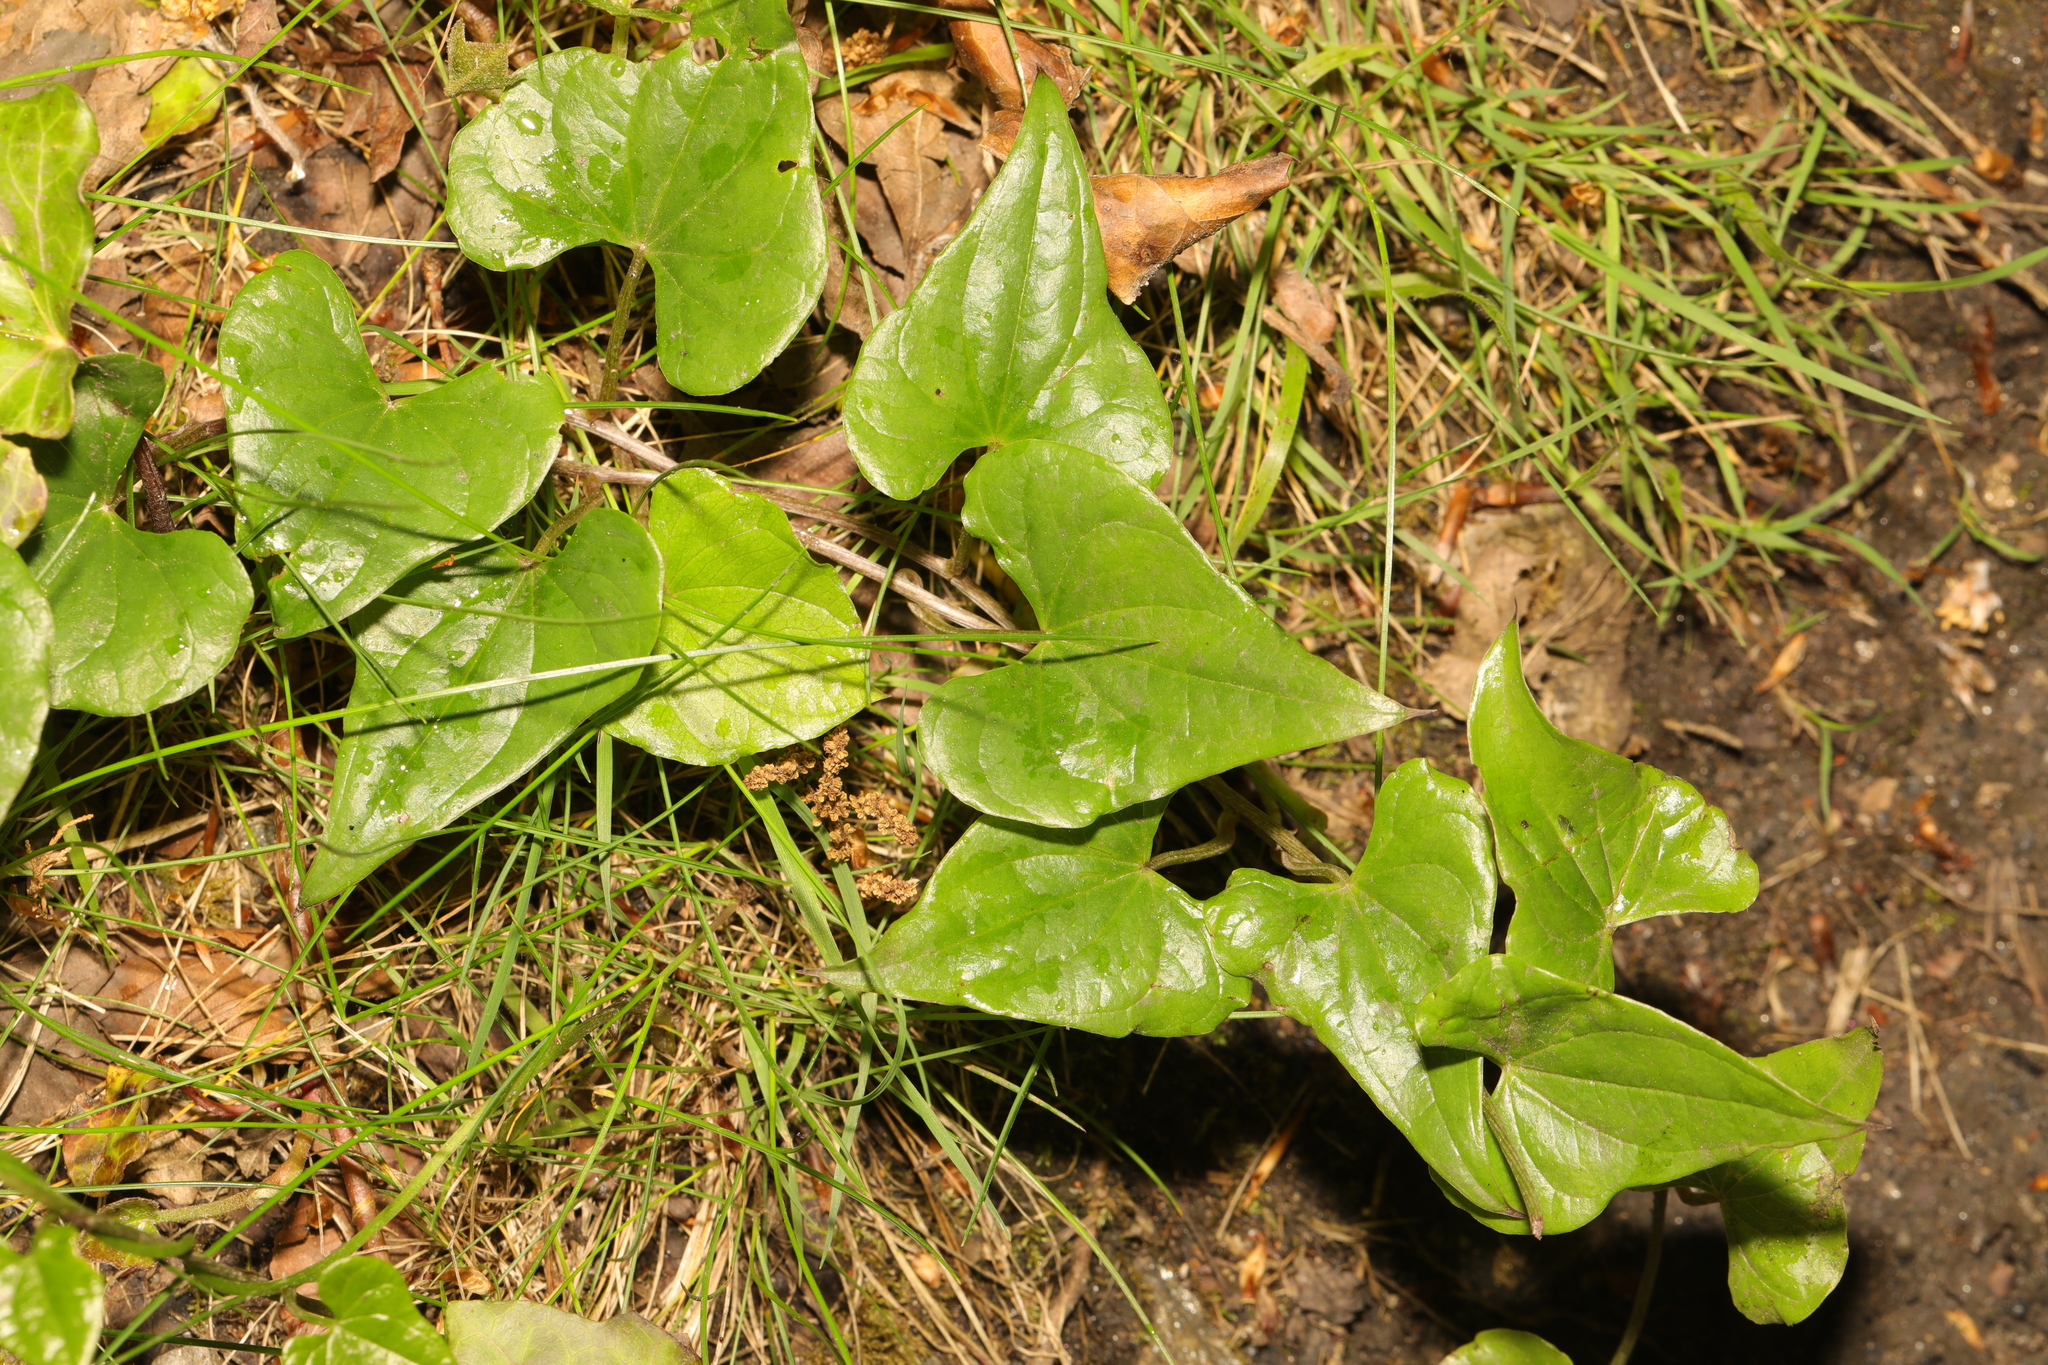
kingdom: Plantae
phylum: Tracheophyta
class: Liliopsida
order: Dioscoreales
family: Dioscoreaceae
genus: Dioscorea
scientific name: Dioscorea communis
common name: Black-bindweed
